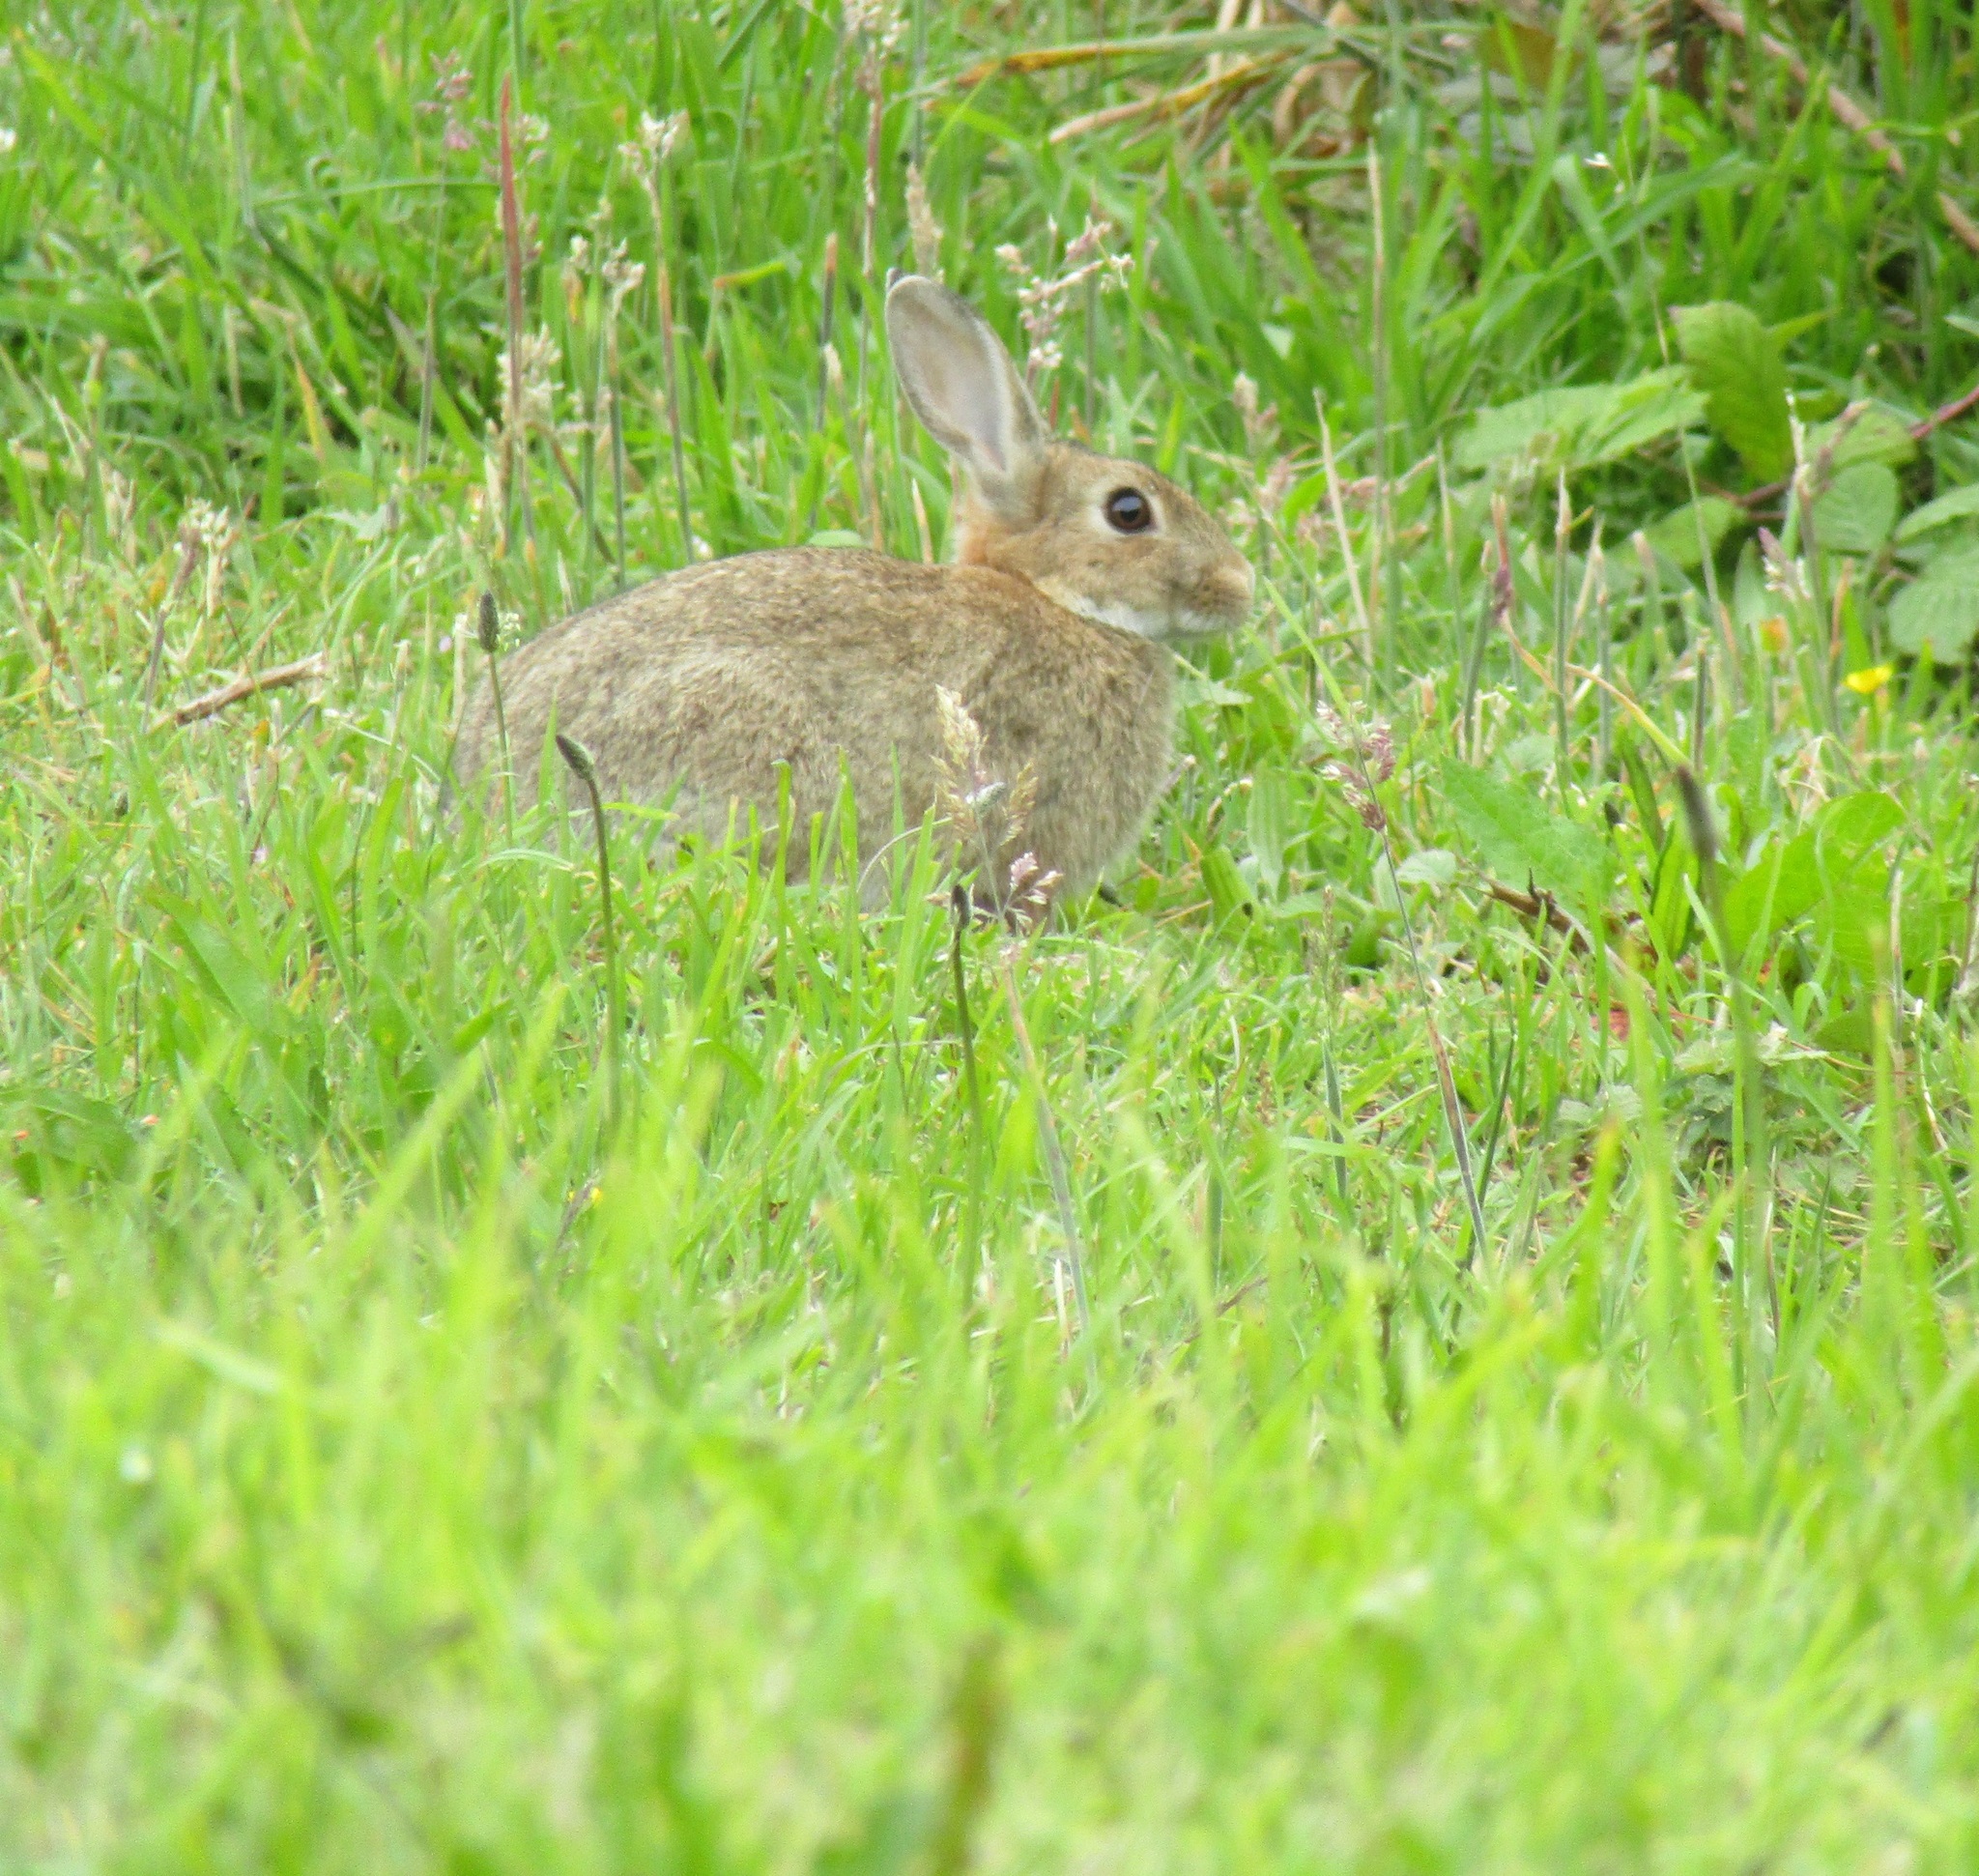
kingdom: Animalia
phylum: Chordata
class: Mammalia
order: Lagomorpha
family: Leporidae
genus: Oryctolagus
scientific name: Oryctolagus cuniculus
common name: European rabbit
